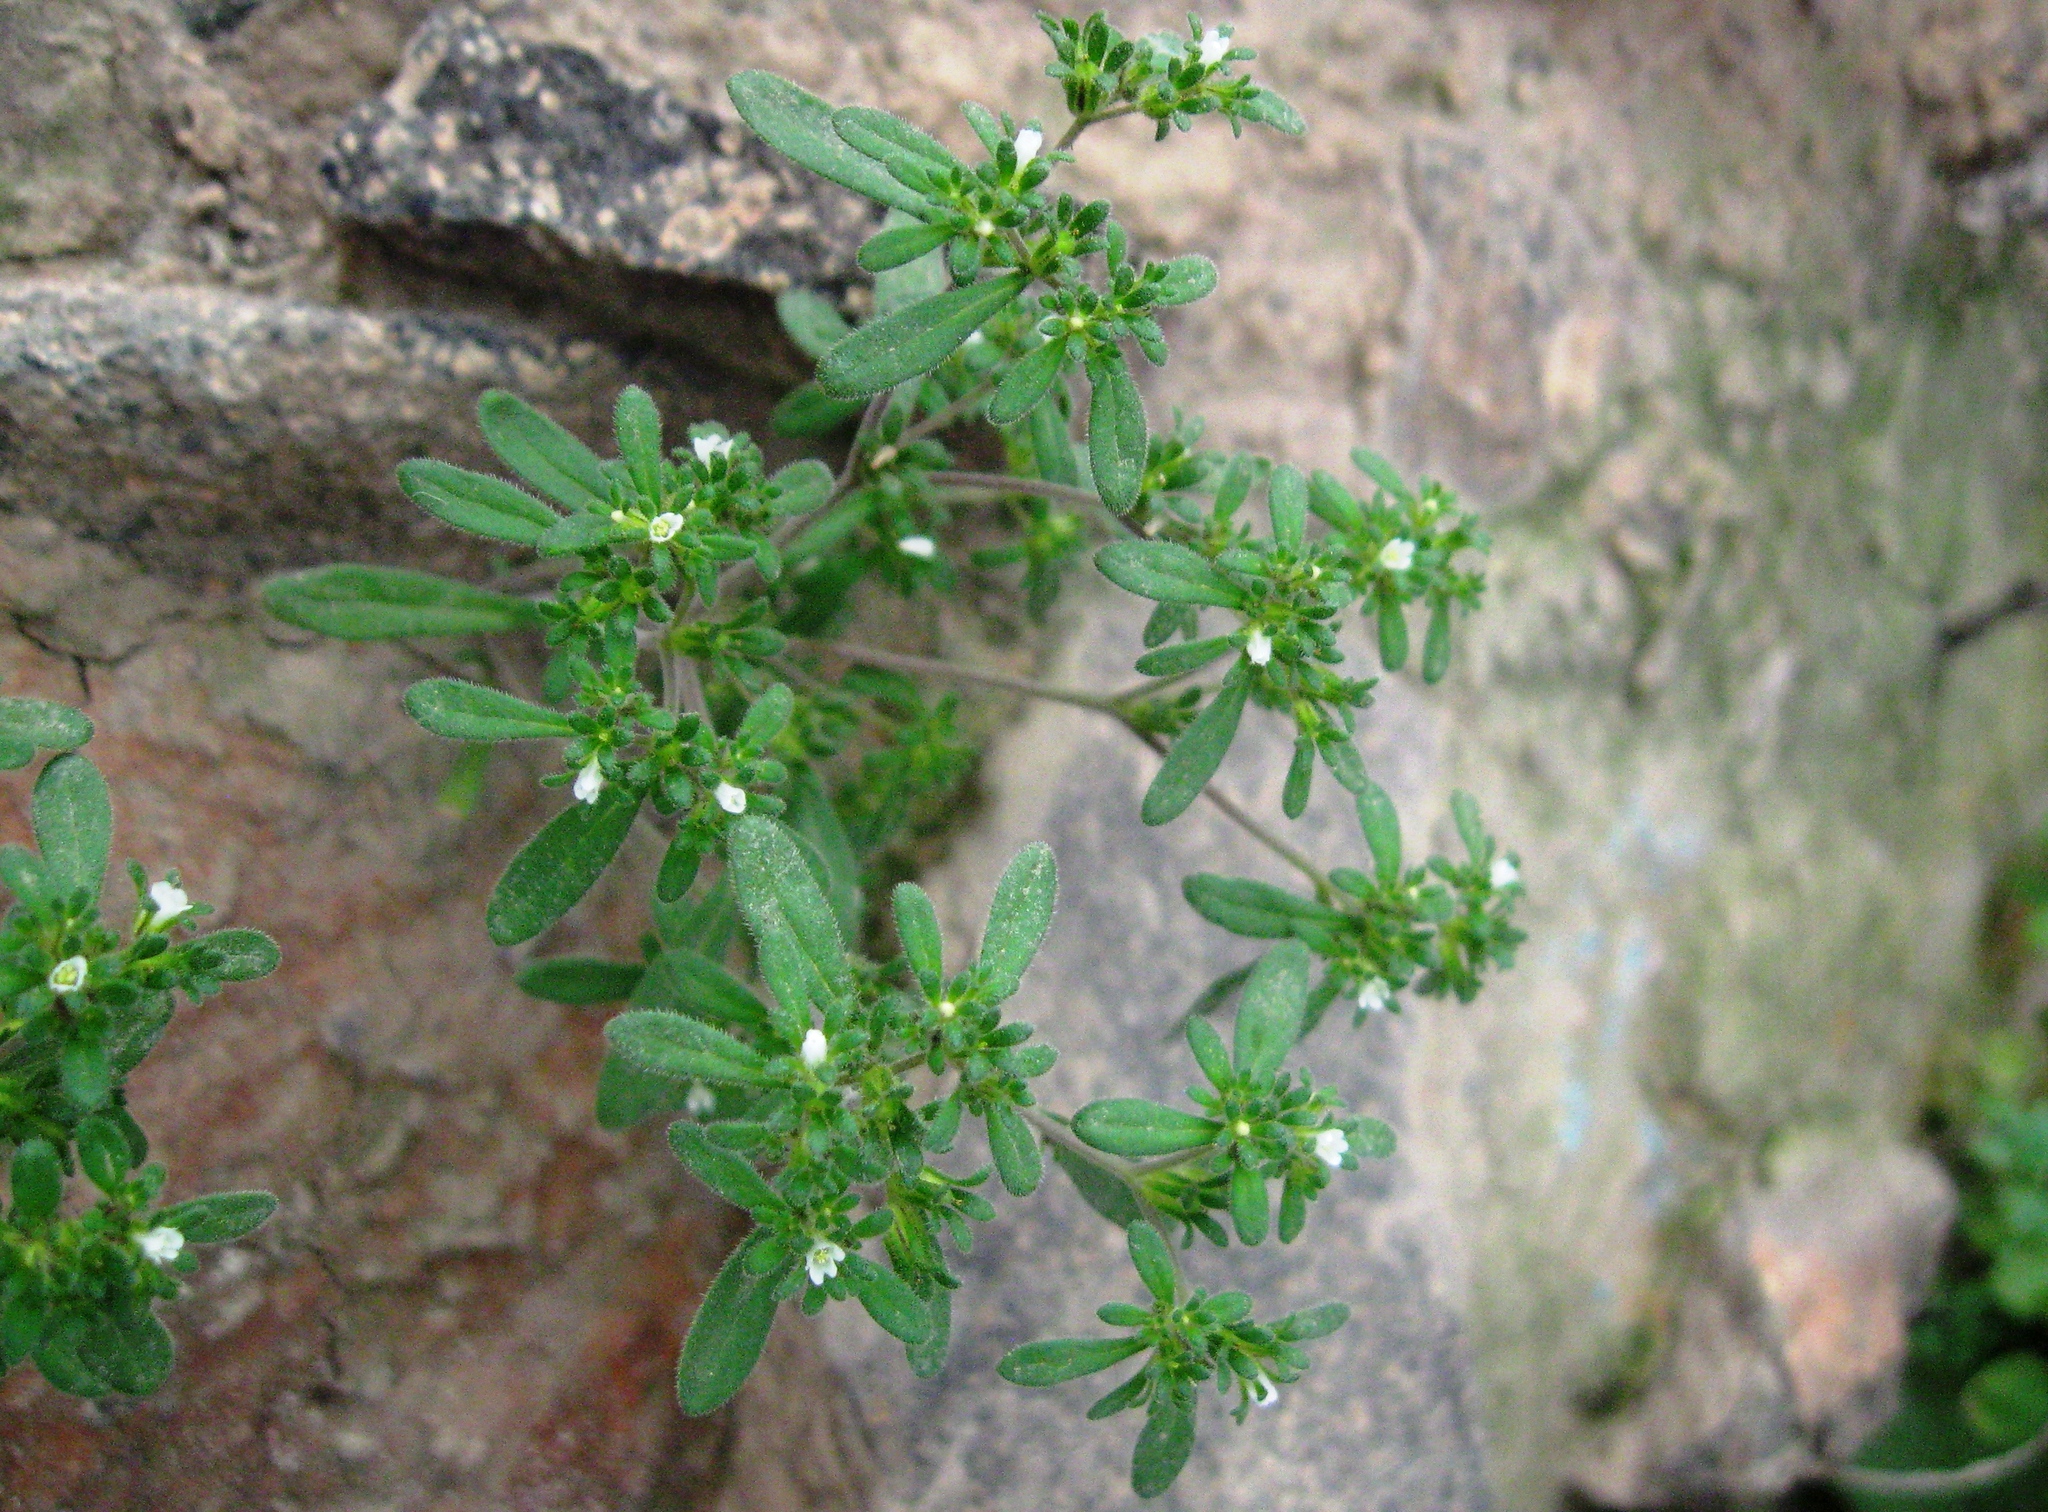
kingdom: Plantae
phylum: Tracheophyta
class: Magnoliopsida
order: Boraginales
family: Namaceae
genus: Nama
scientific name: Nama dichotoma
